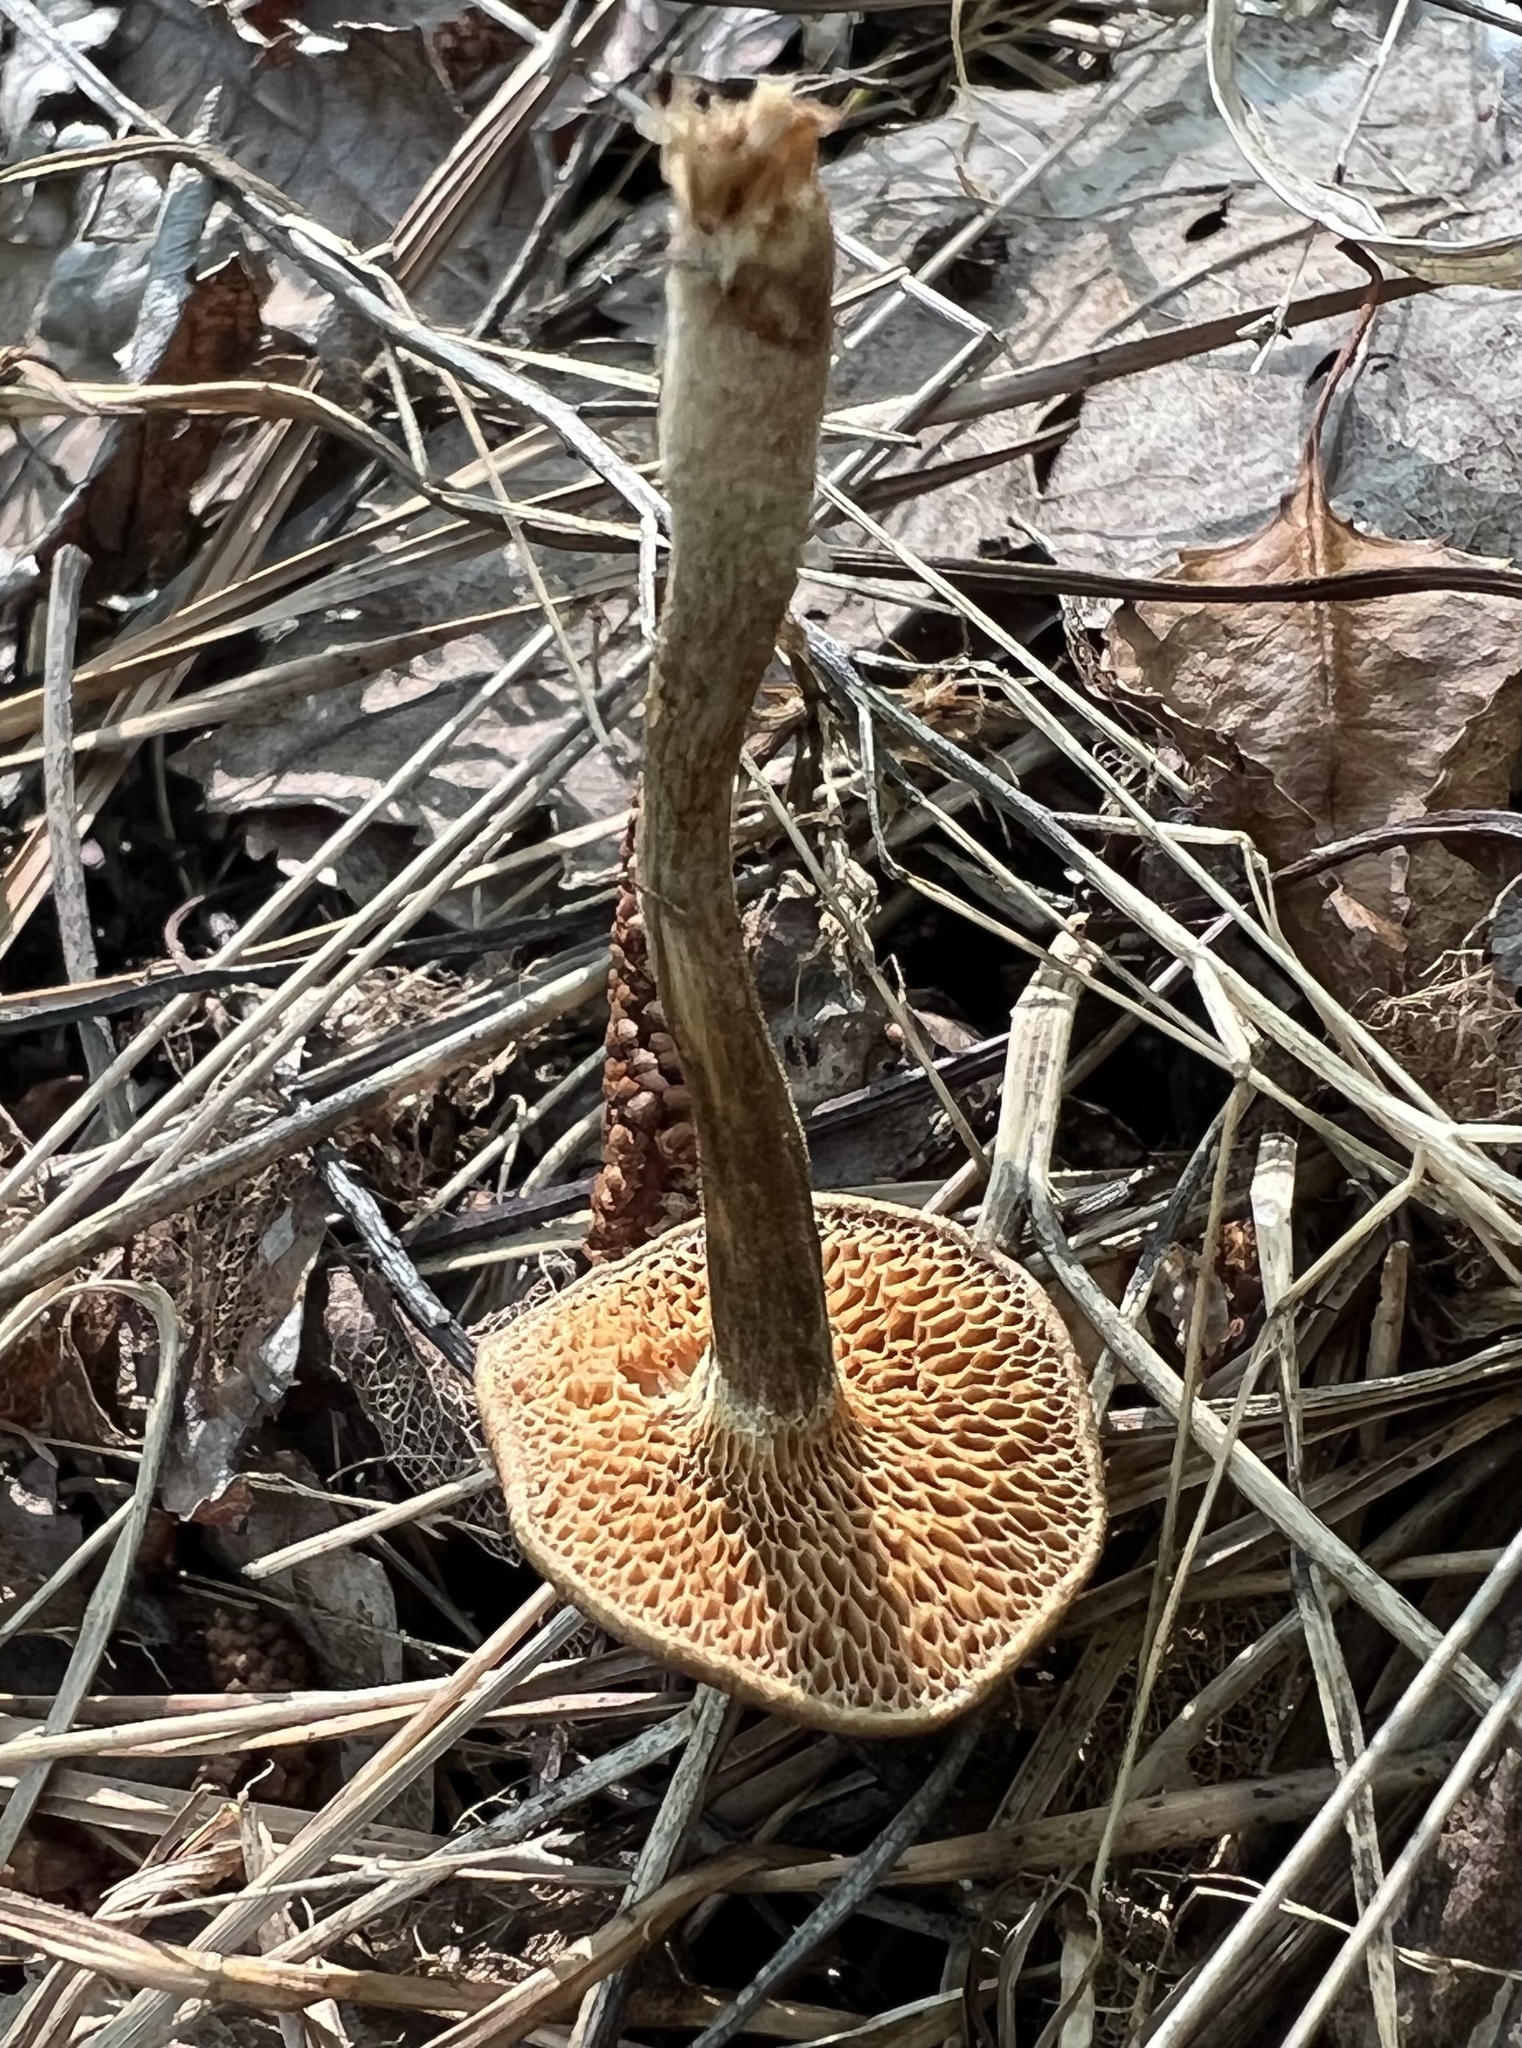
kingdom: Fungi
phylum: Basidiomycota
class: Agaricomycetes
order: Polyporales
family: Polyporaceae
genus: Lentinus
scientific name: Lentinus arcularius
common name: Spring polypore
